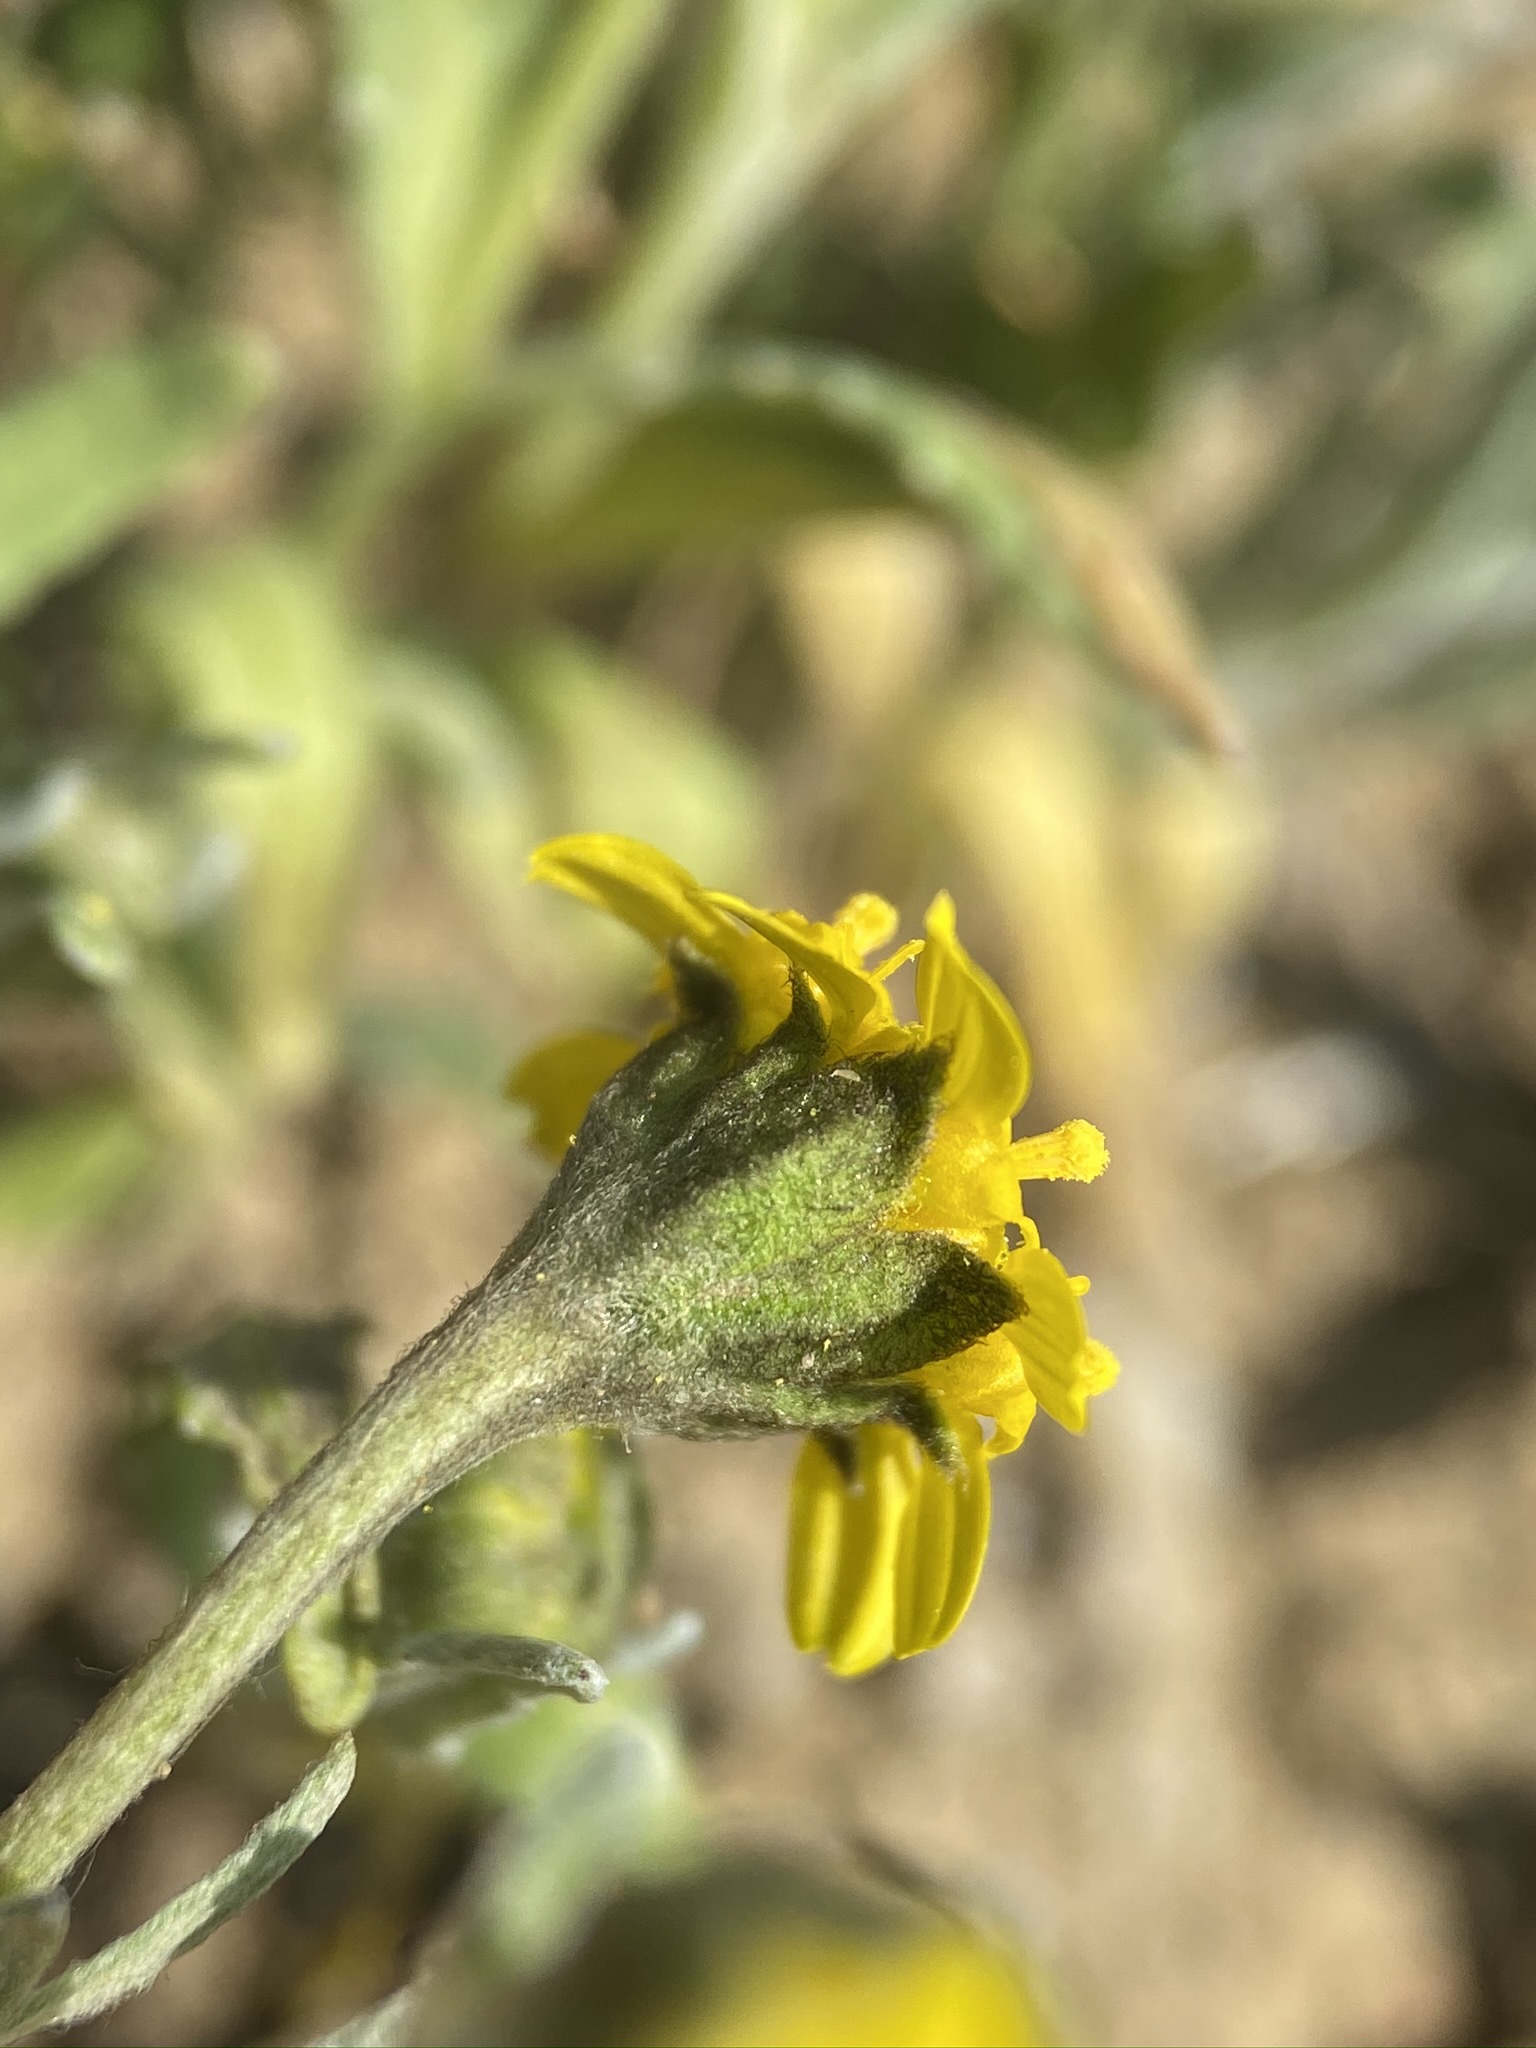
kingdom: Plantae
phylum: Tracheophyta
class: Magnoliopsida
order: Asterales
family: Asteraceae
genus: Monolopia
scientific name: Monolopia stricta
